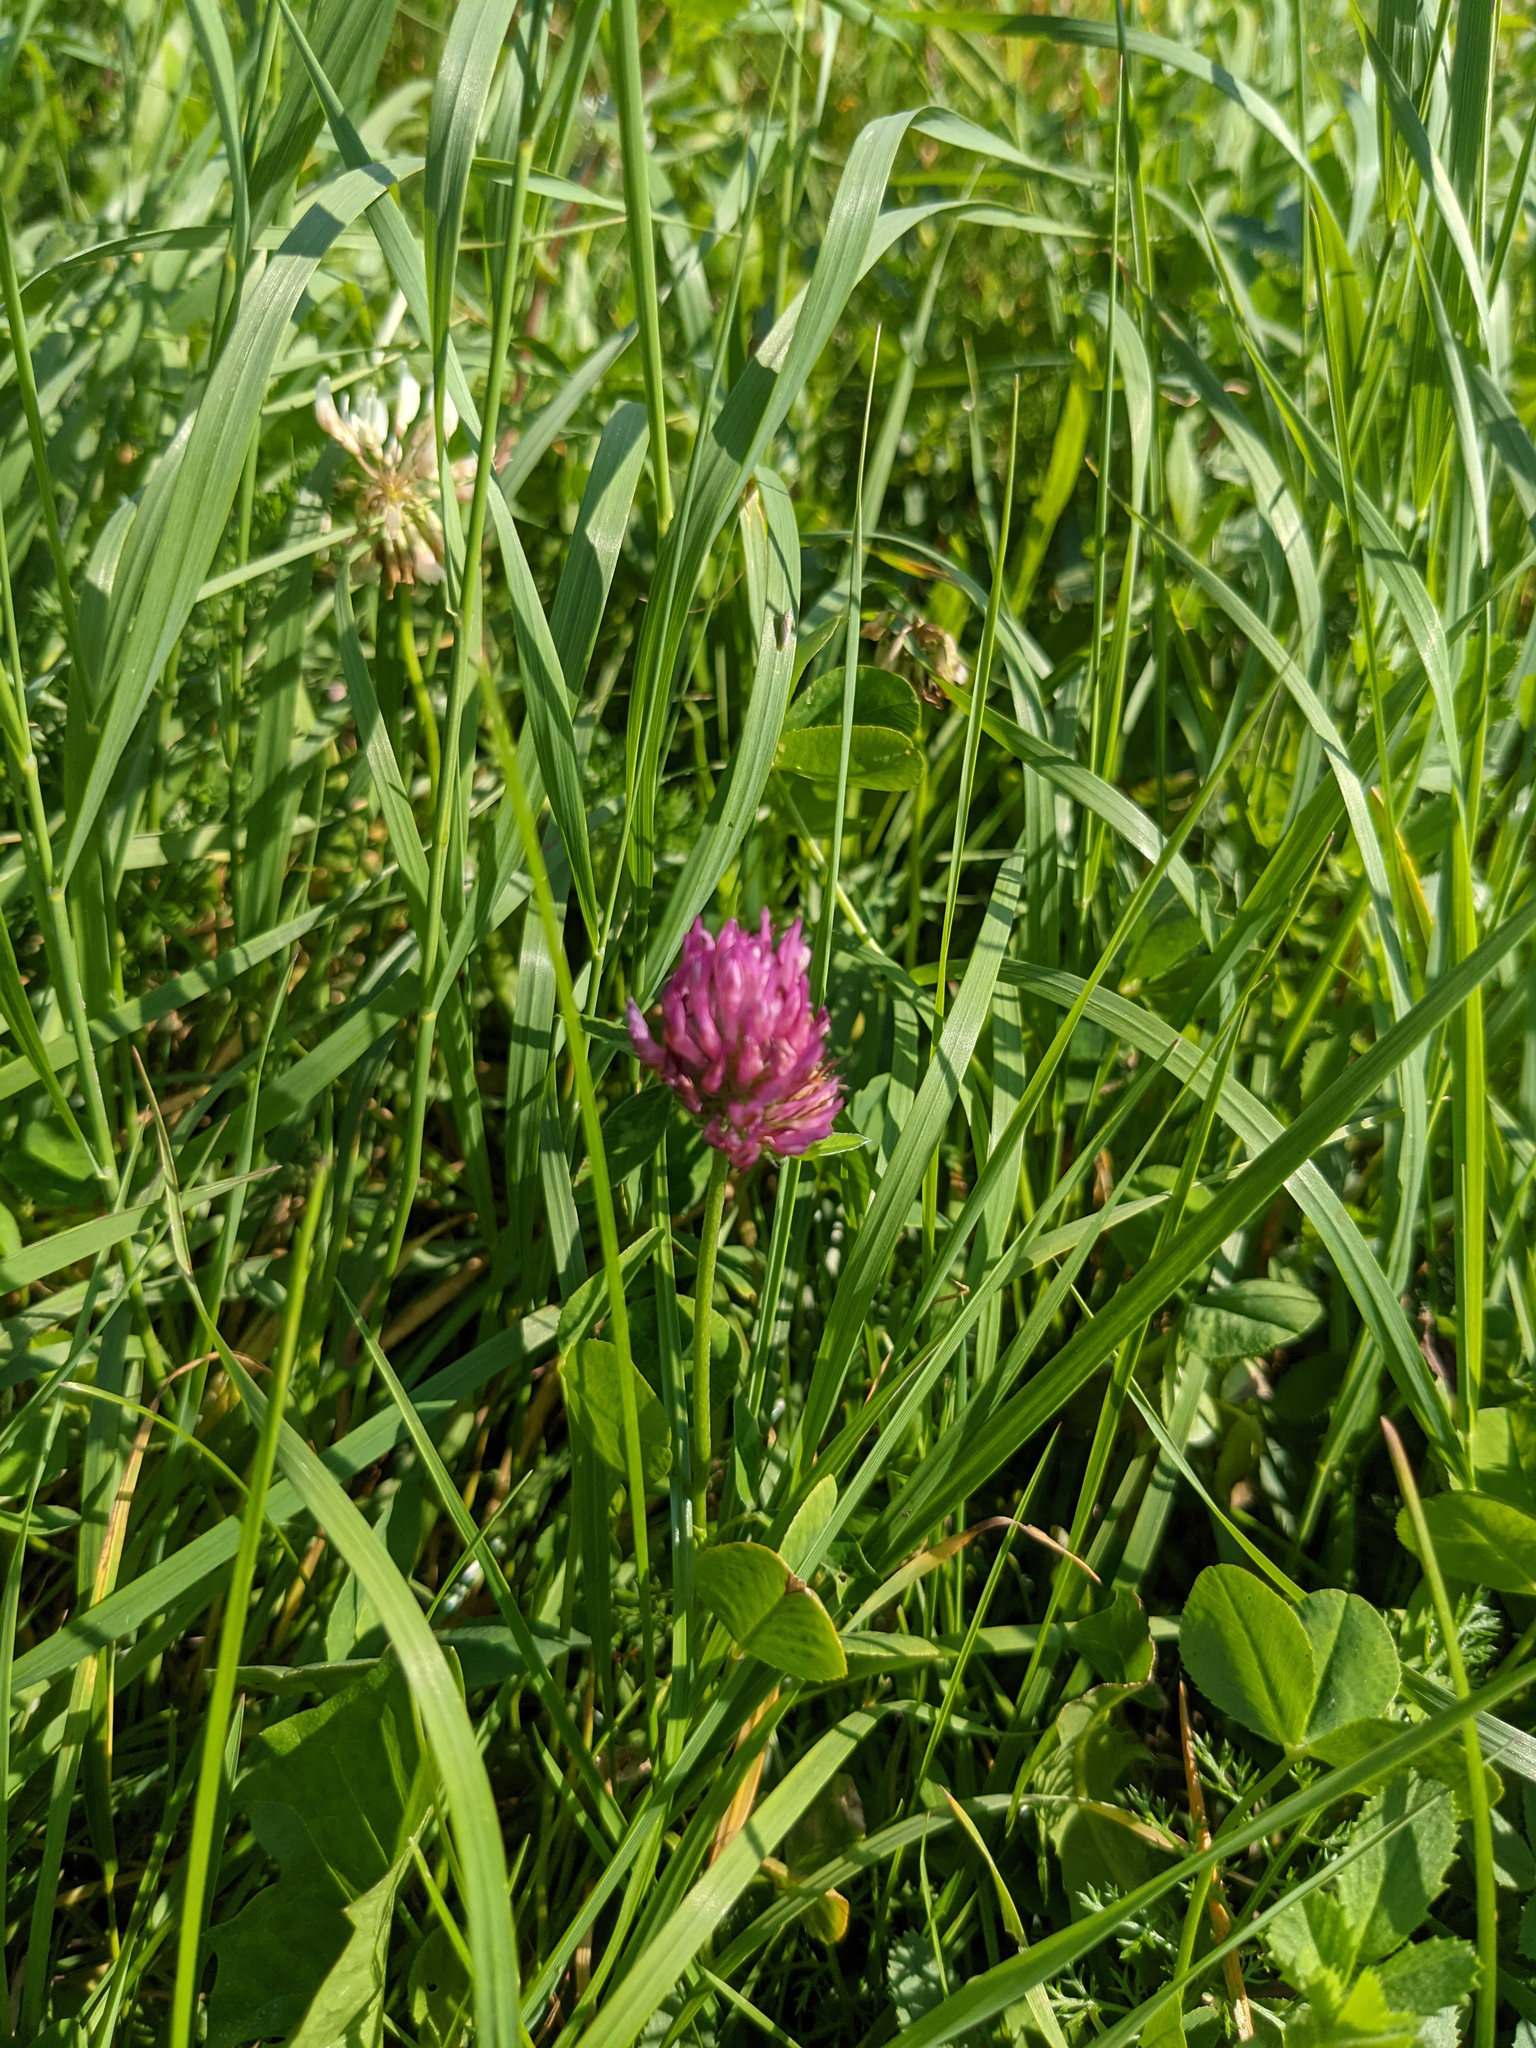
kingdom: Plantae
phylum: Tracheophyta
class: Magnoliopsida
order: Fabales
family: Fabaceae
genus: Trifolium
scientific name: Trifolium pratense
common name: Red clover
